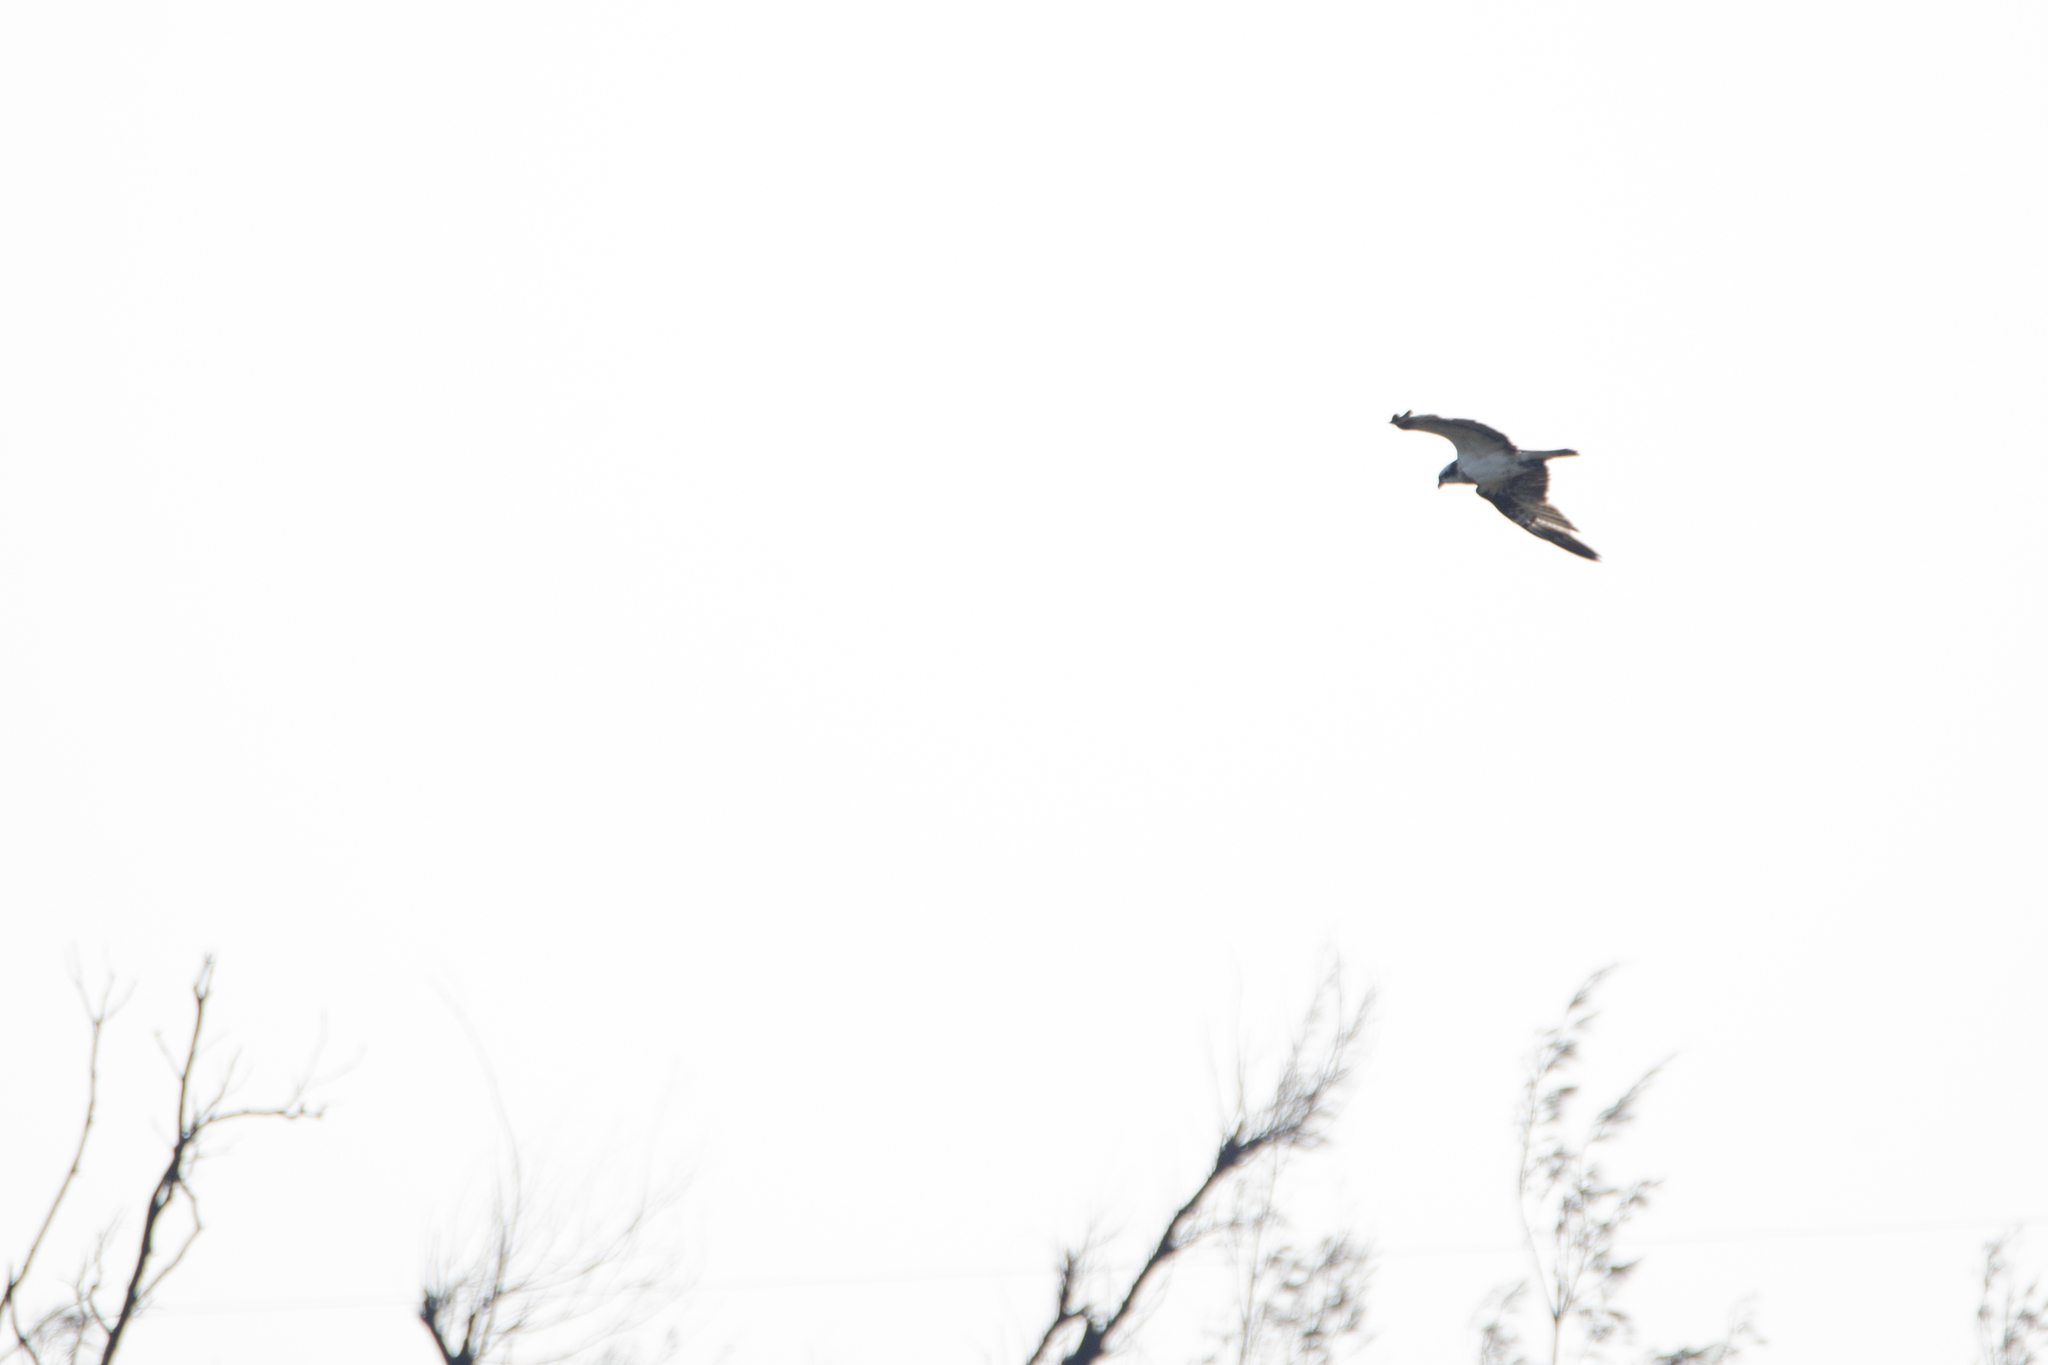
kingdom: Animalia
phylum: Chordata
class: Aves
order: Accipitriformes
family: Pandionidae
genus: Pandion
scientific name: Pandion haliaetus
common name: Osprey
